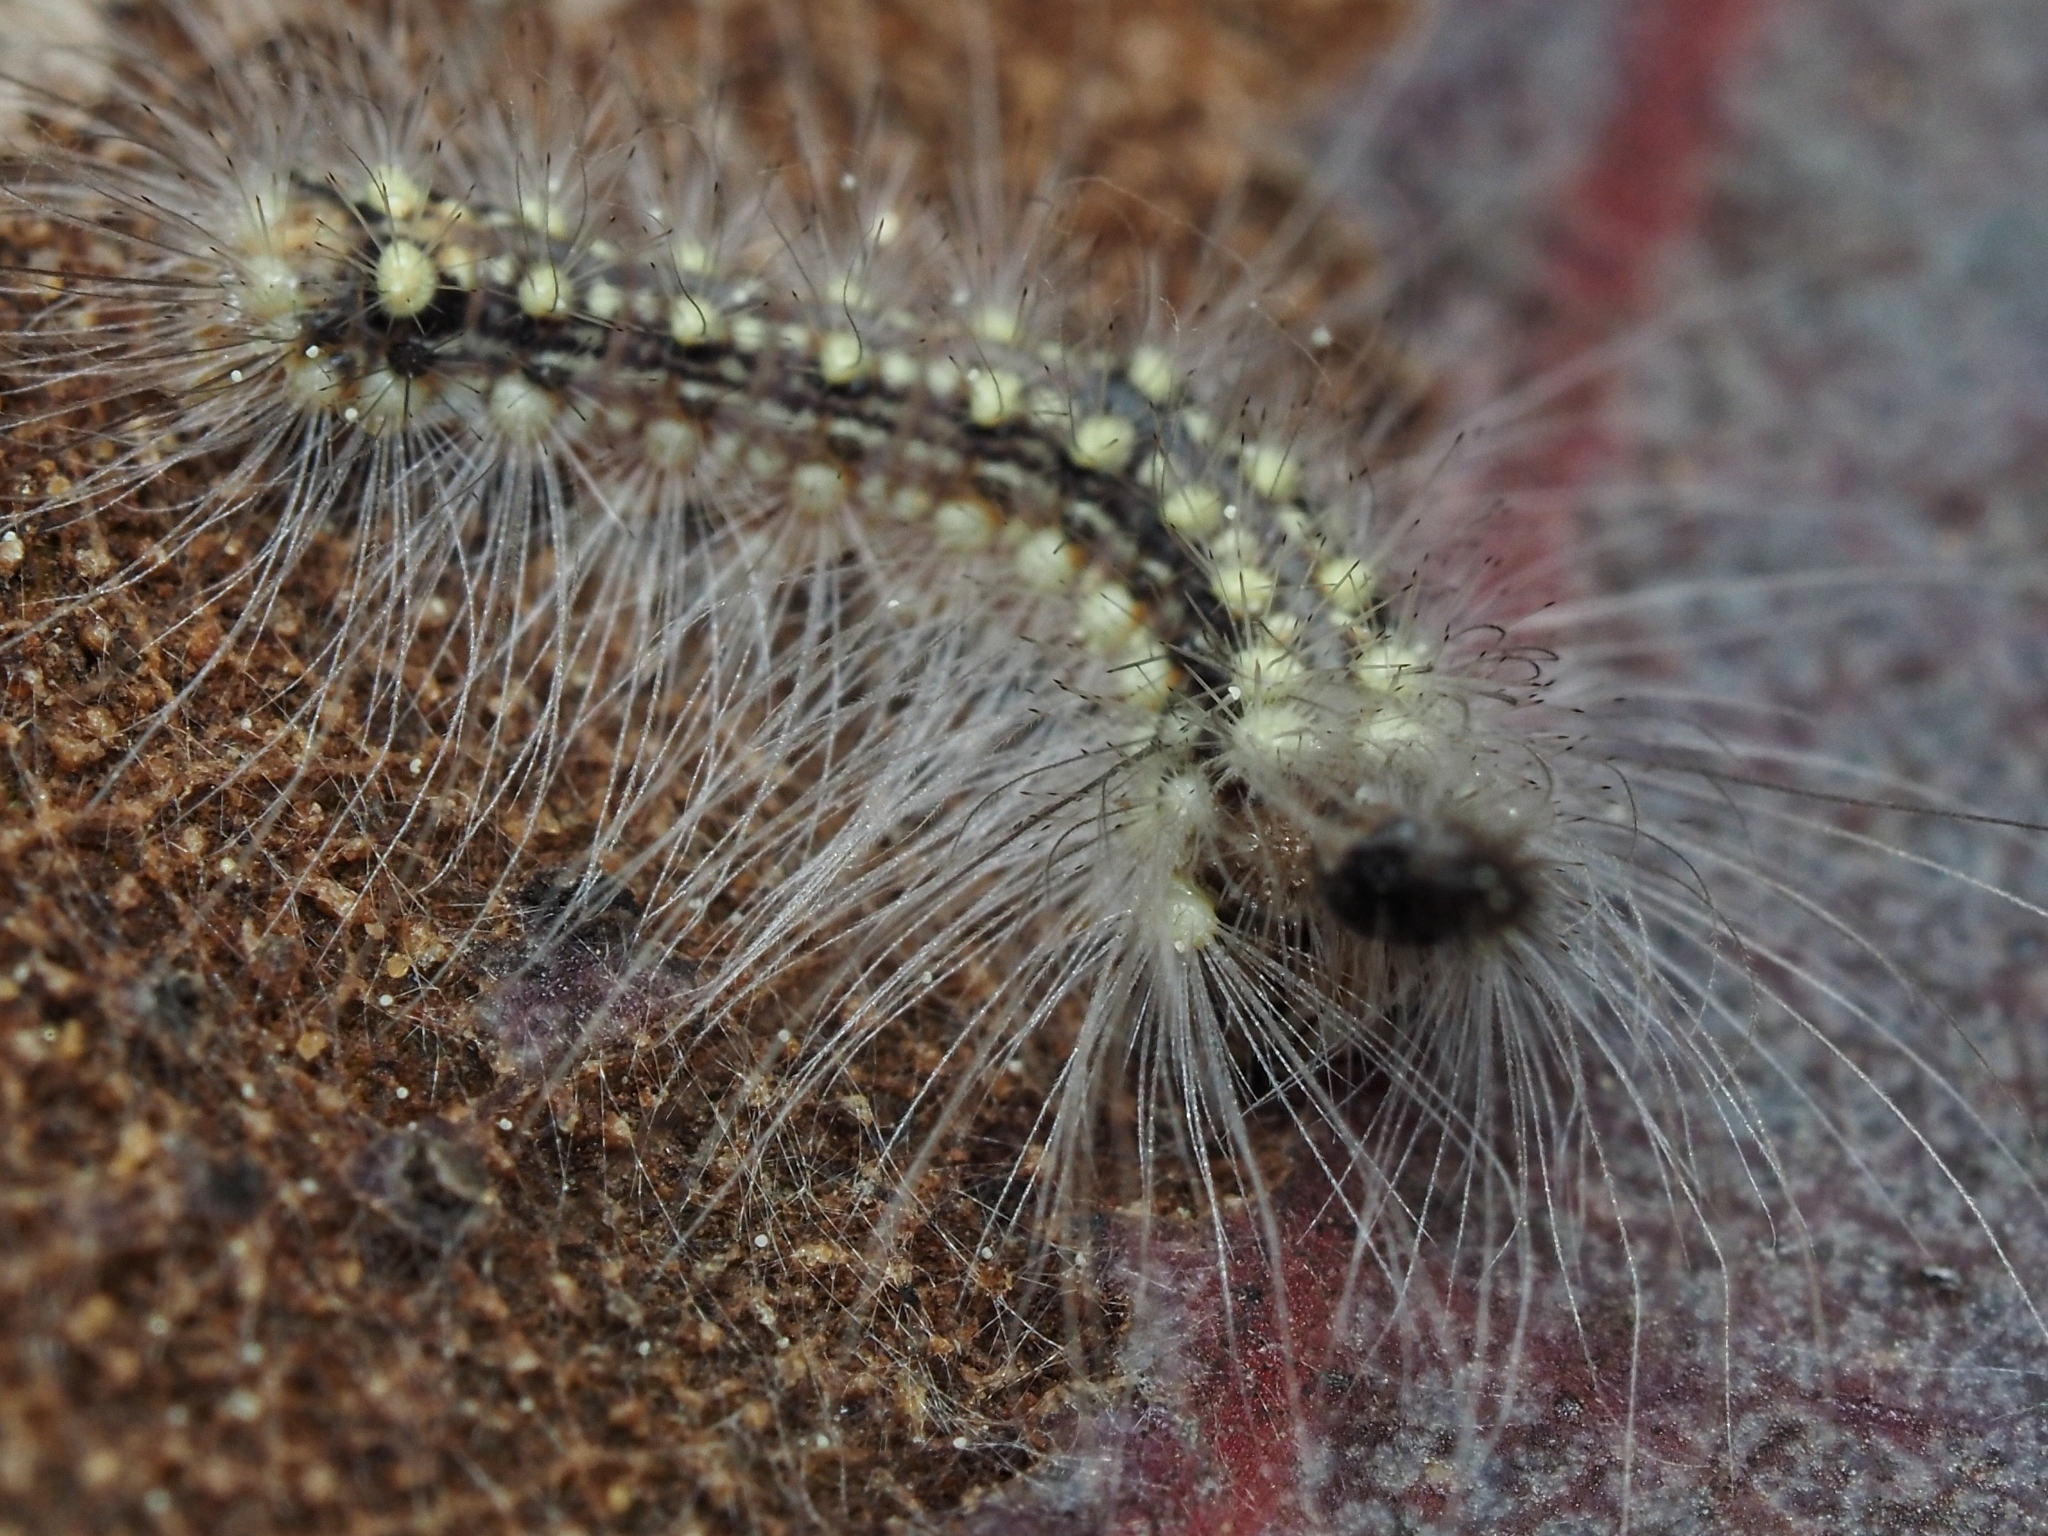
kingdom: Animalia
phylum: Arthropoda
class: Insecta
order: Lepidoptera
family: Nolidae
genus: Uraba
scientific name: Uraba lugens
